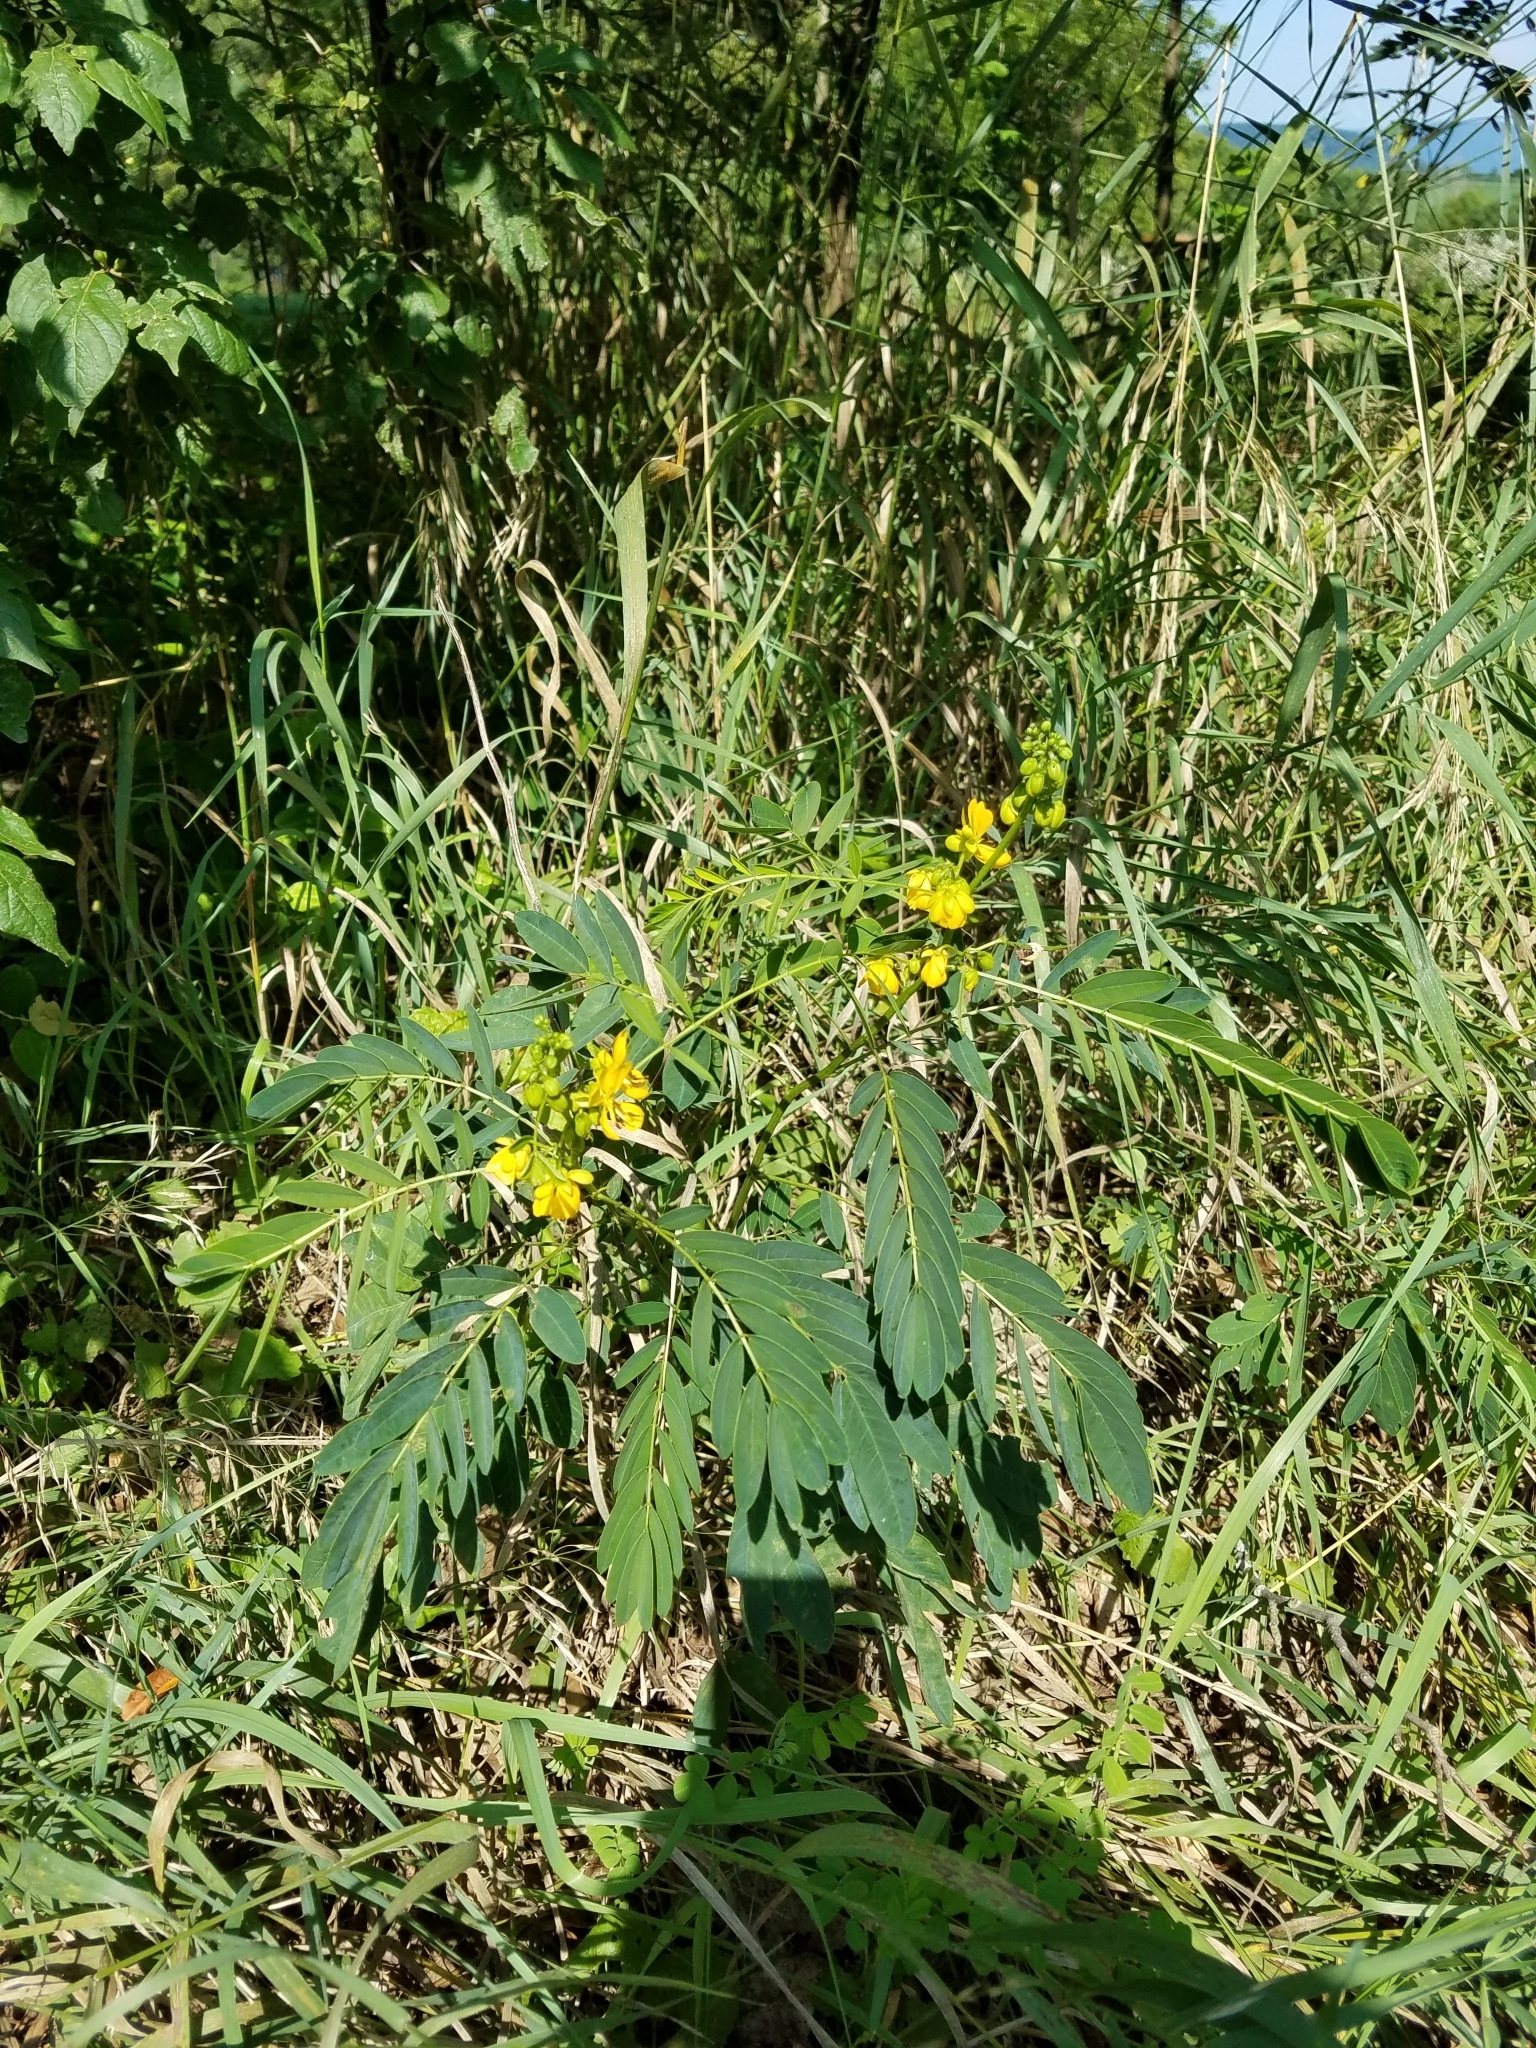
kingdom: Plantae
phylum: Tracheophyta
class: Magnoliopsida
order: Fabales
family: Fabaceae
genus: Senna
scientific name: Senna marilandica
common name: American senna
